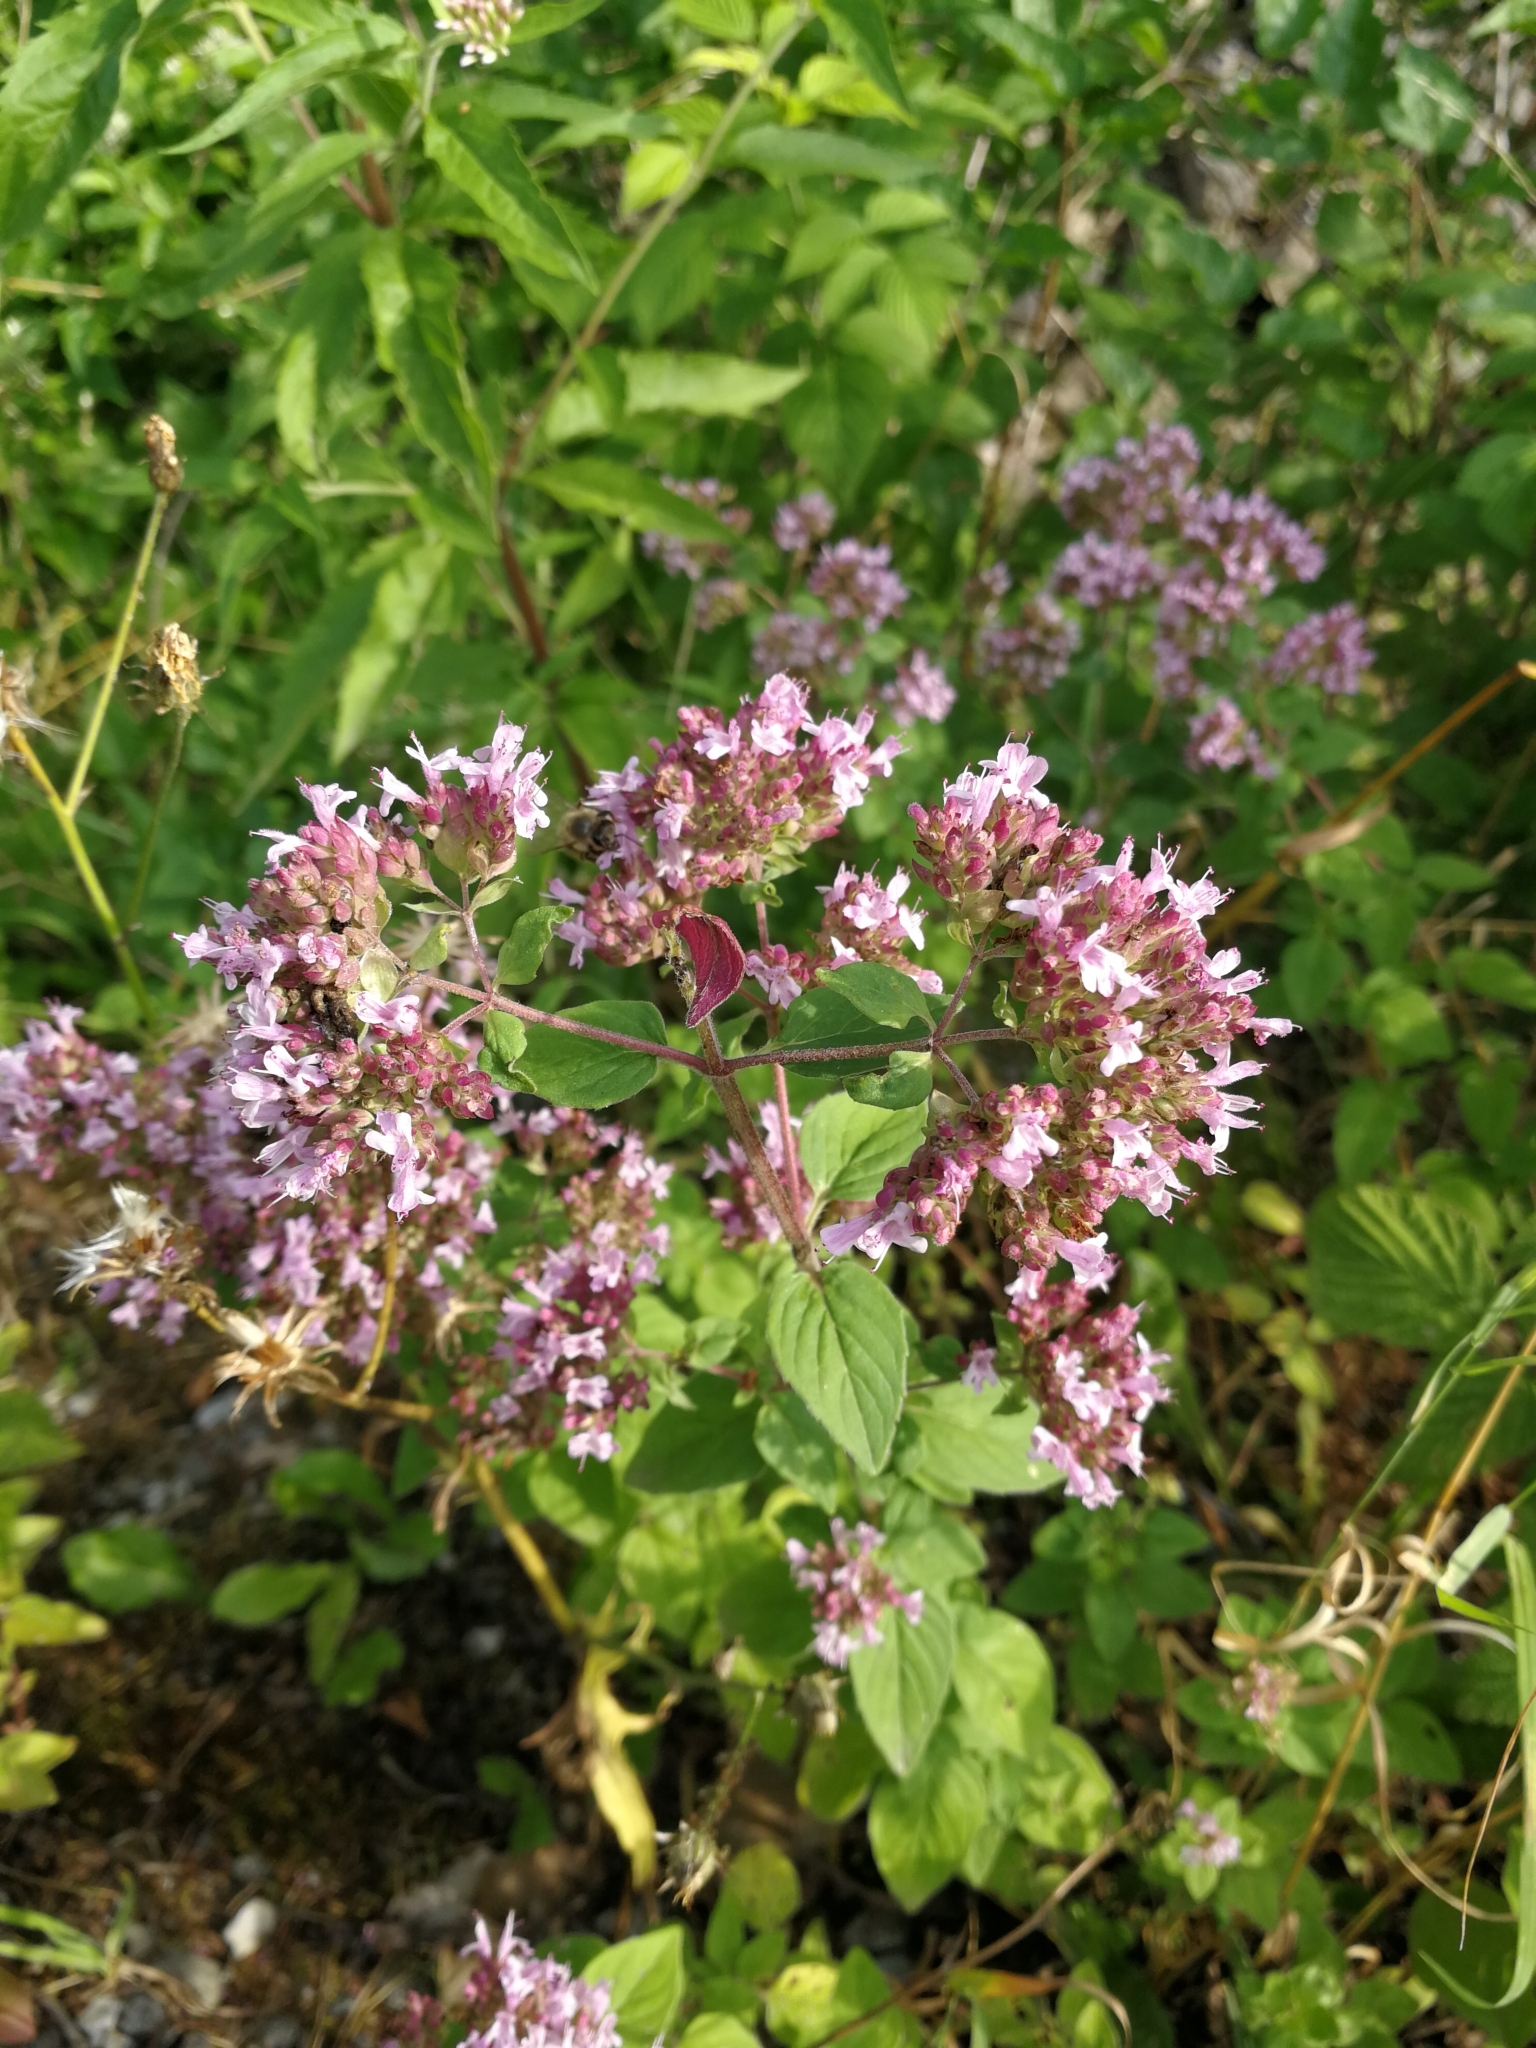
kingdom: Plantae
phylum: Tracheophyta
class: Magnoliopsida
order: Lamiales
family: Lamiaceae
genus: Origanum
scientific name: Origanum vulgare
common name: Wild marjoram
